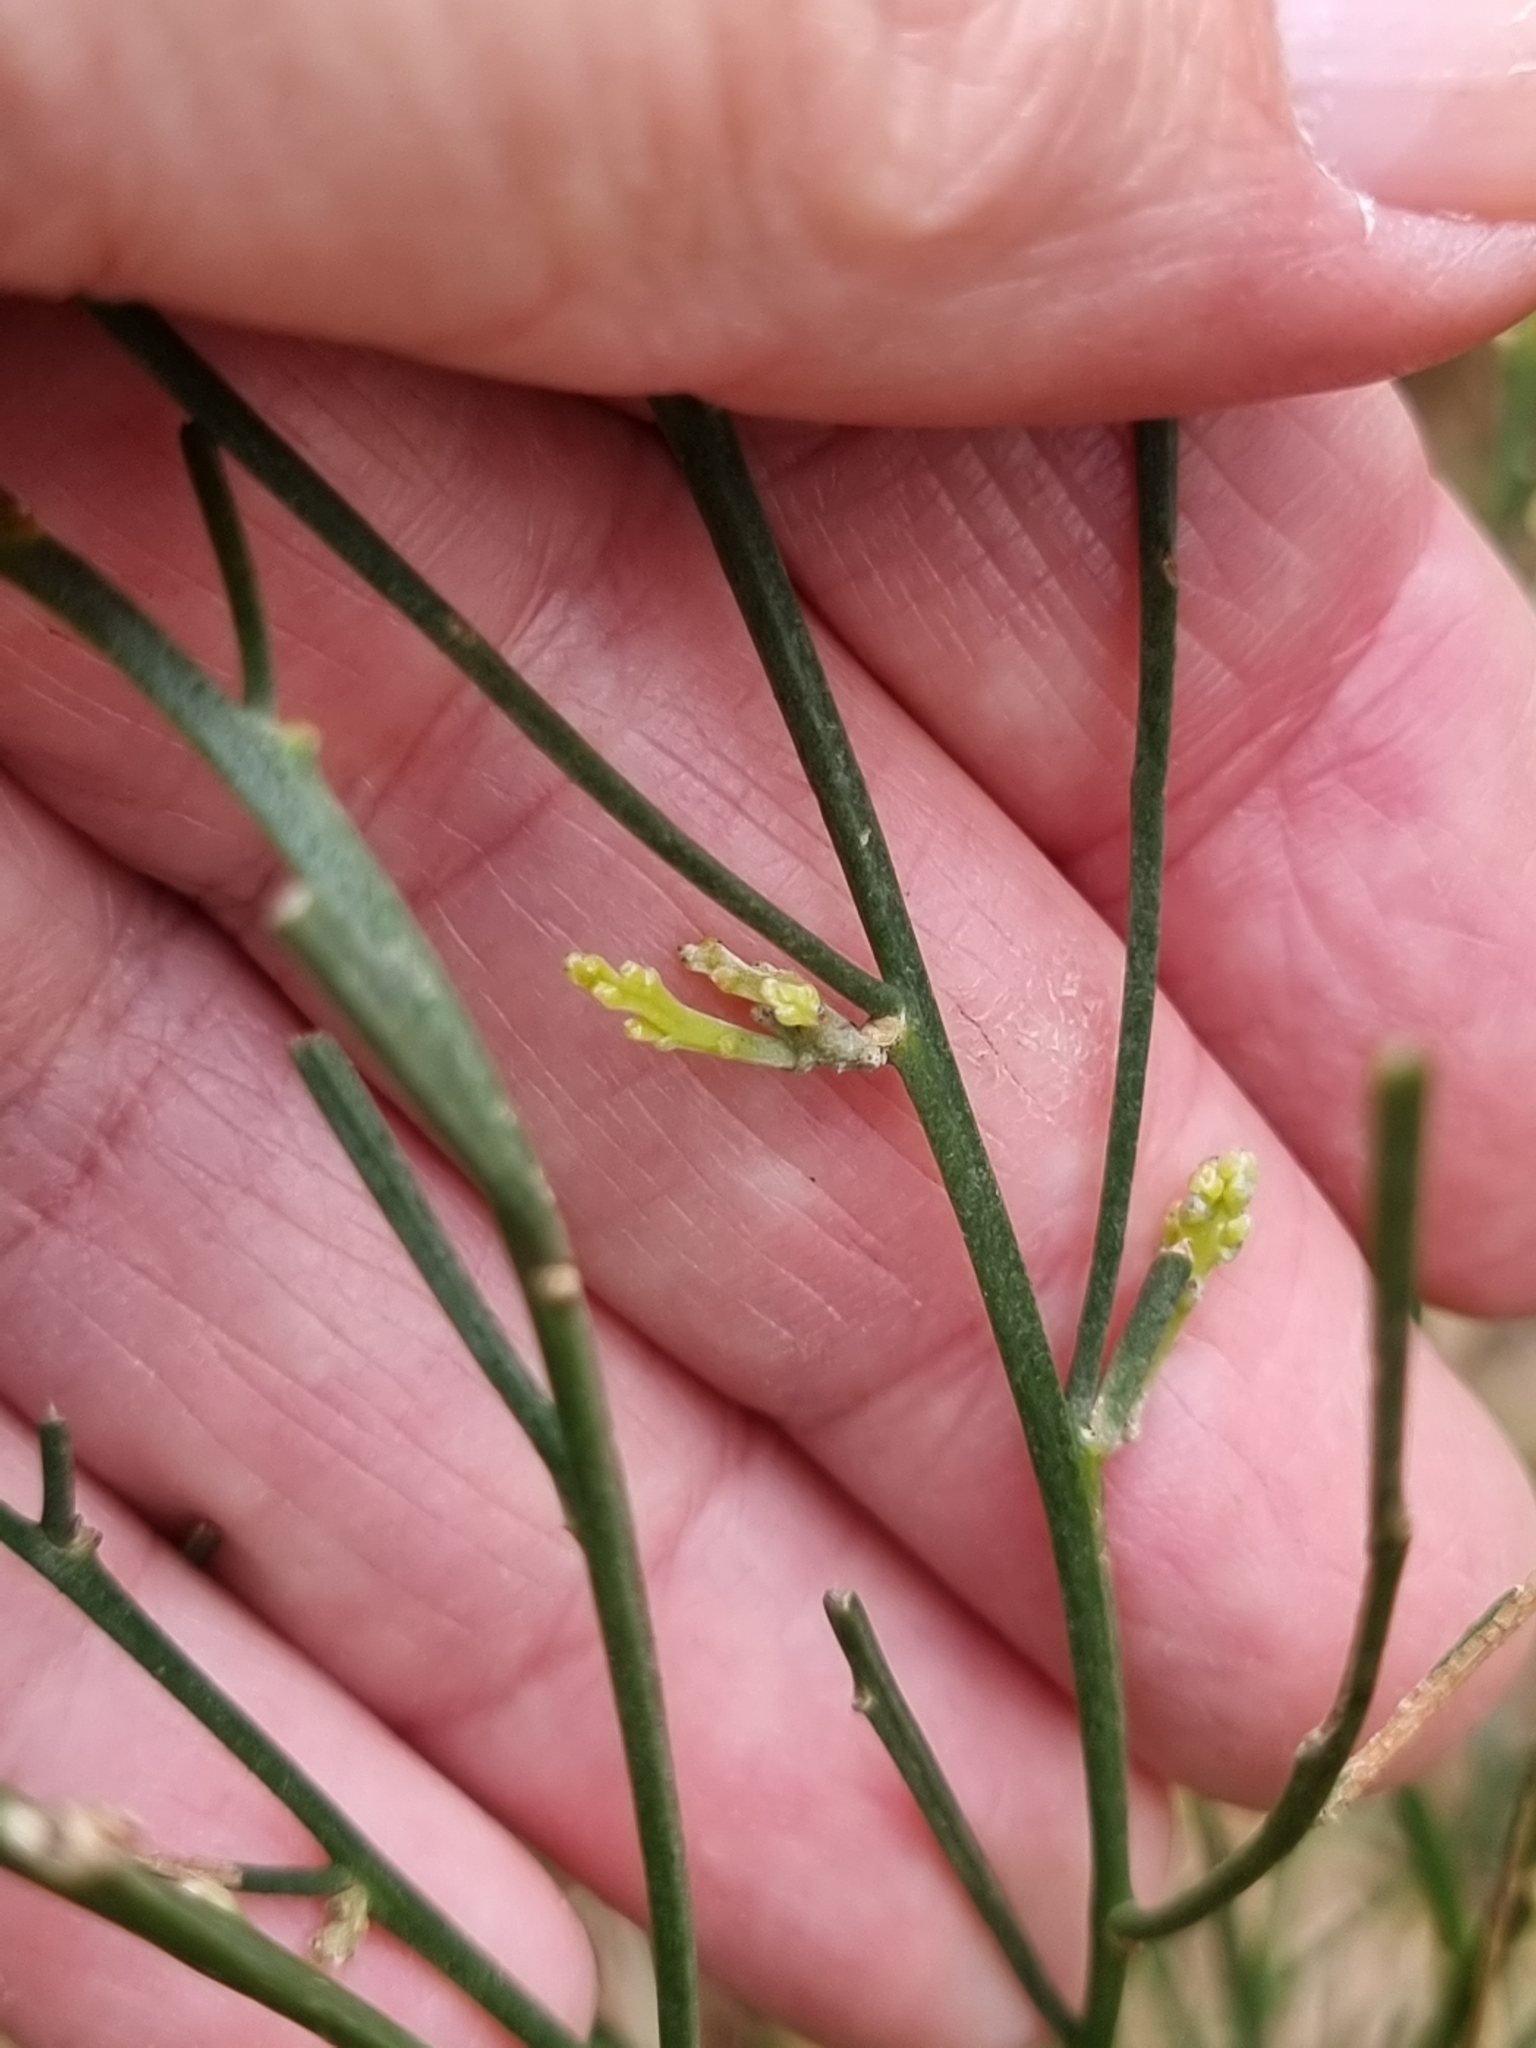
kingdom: Plantae
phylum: Tracheophyta
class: Magnoliopsida
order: Fabales
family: Fabaceae
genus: Jacksonia
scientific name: Jacksonia scoparia
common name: Dogwood
